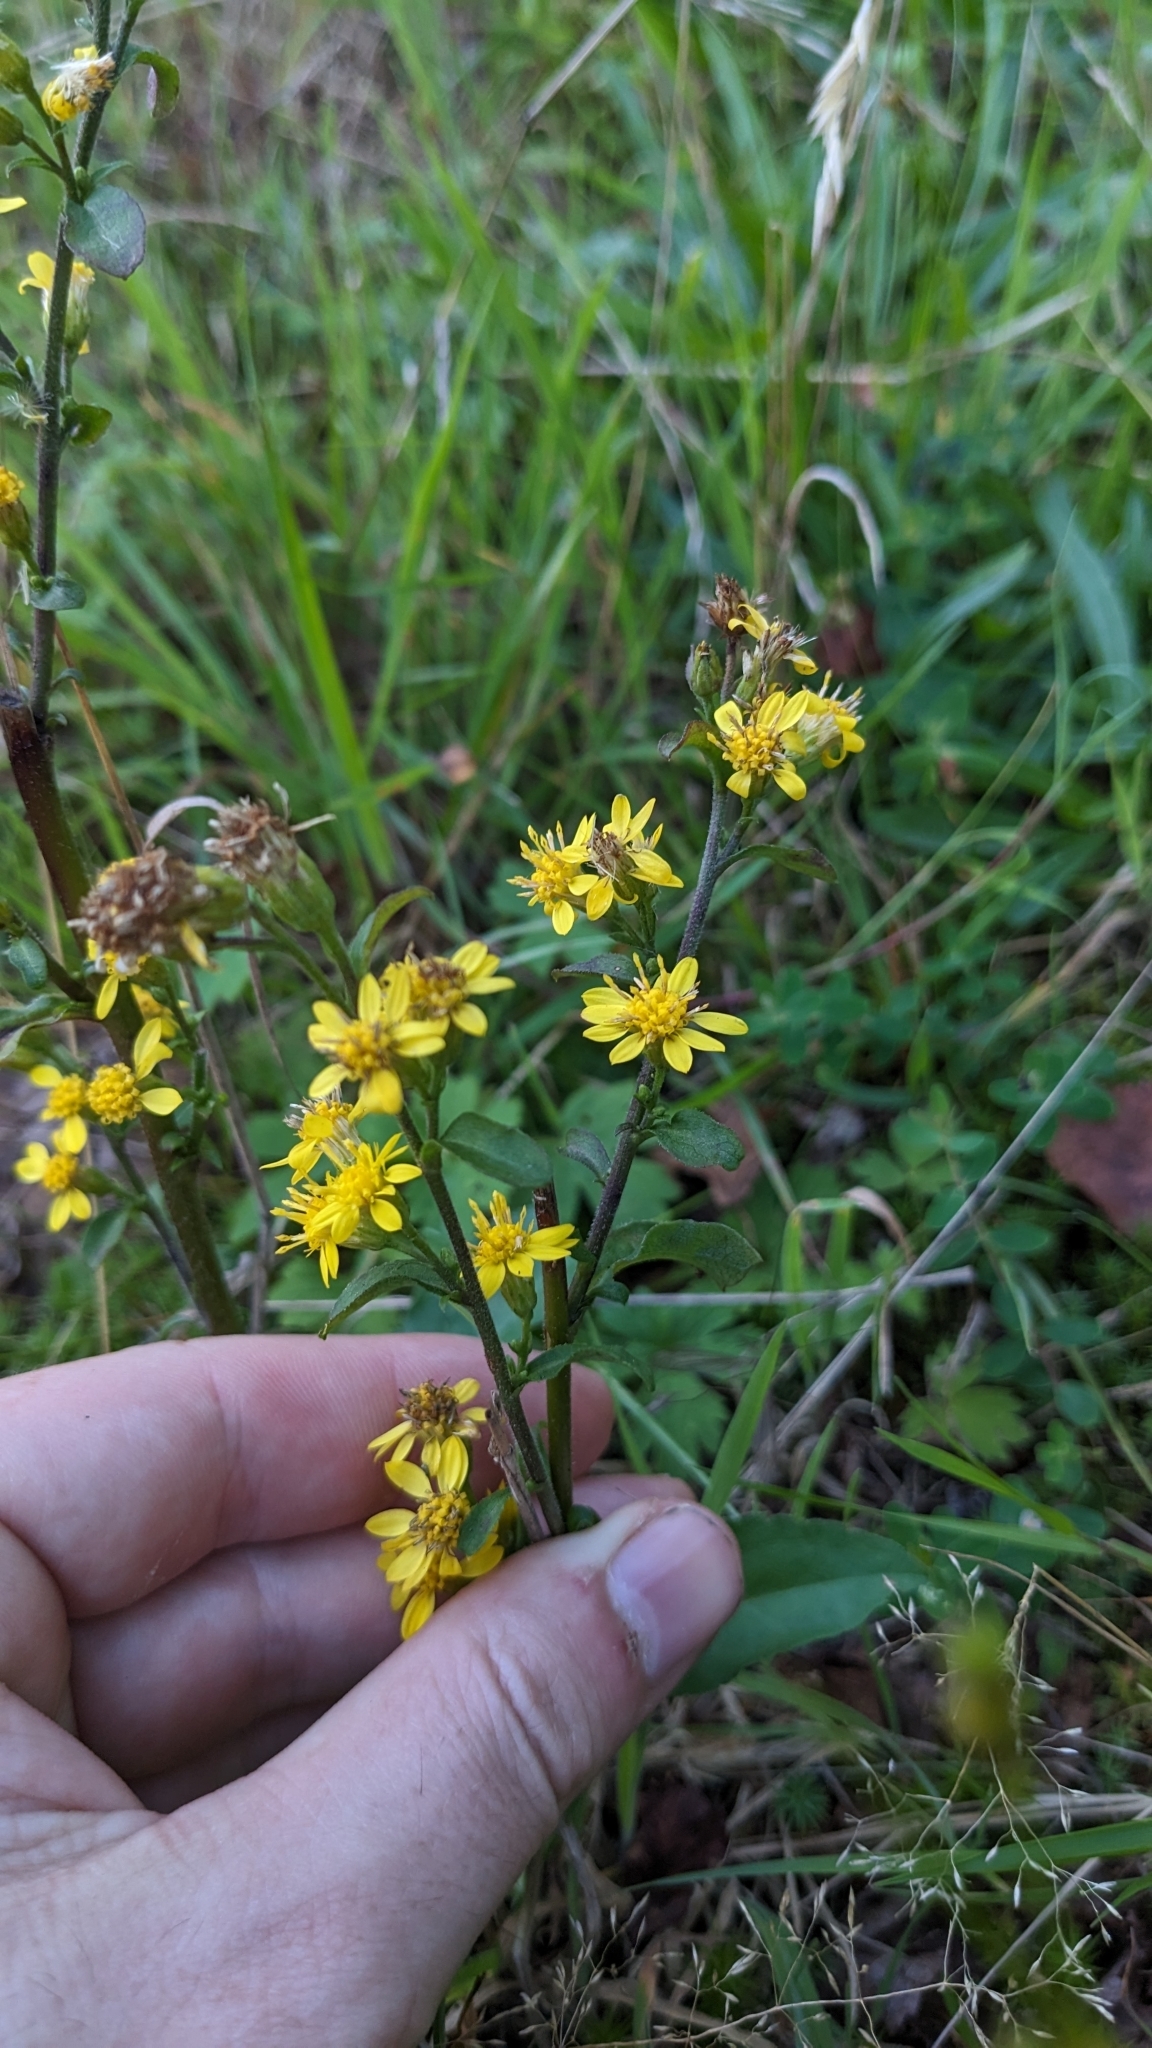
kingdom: Plantae
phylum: Tracheophyta
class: Magnoliopsida
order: Asterales
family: Asteraceae
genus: Solidago
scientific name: Solidago virgaurea
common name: Goldenrod
